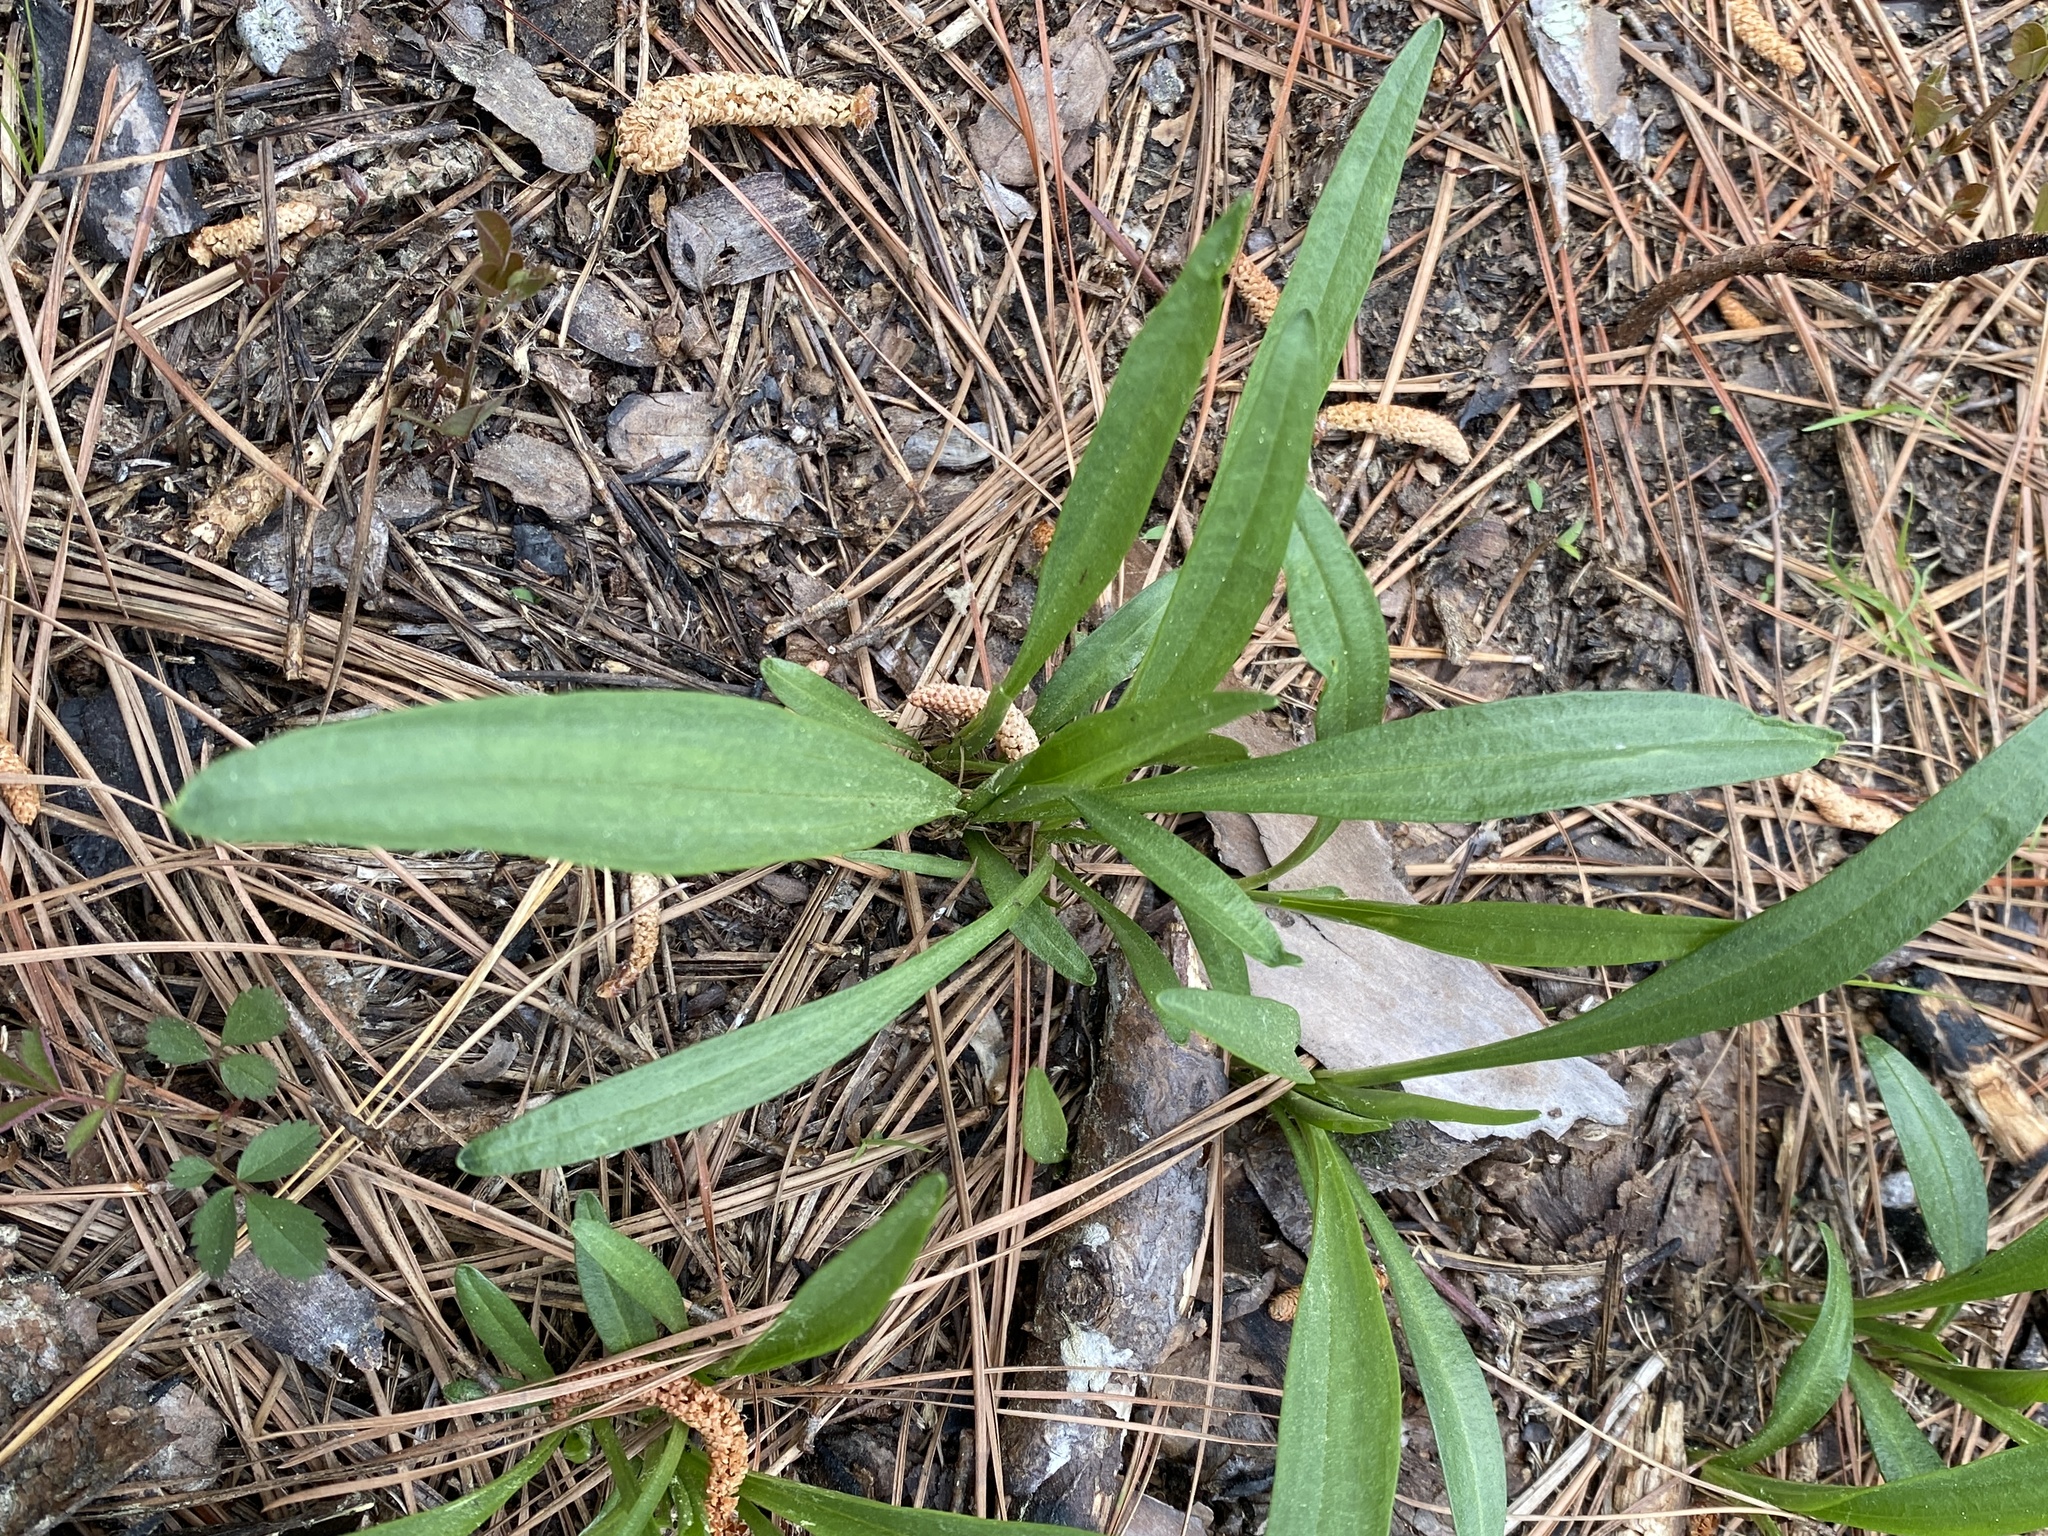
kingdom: Plantae
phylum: Tracheophyta
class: Magnoliopsida
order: Asterales
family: Asteraceae
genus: Marshallia
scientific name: Marshallia legrandii
